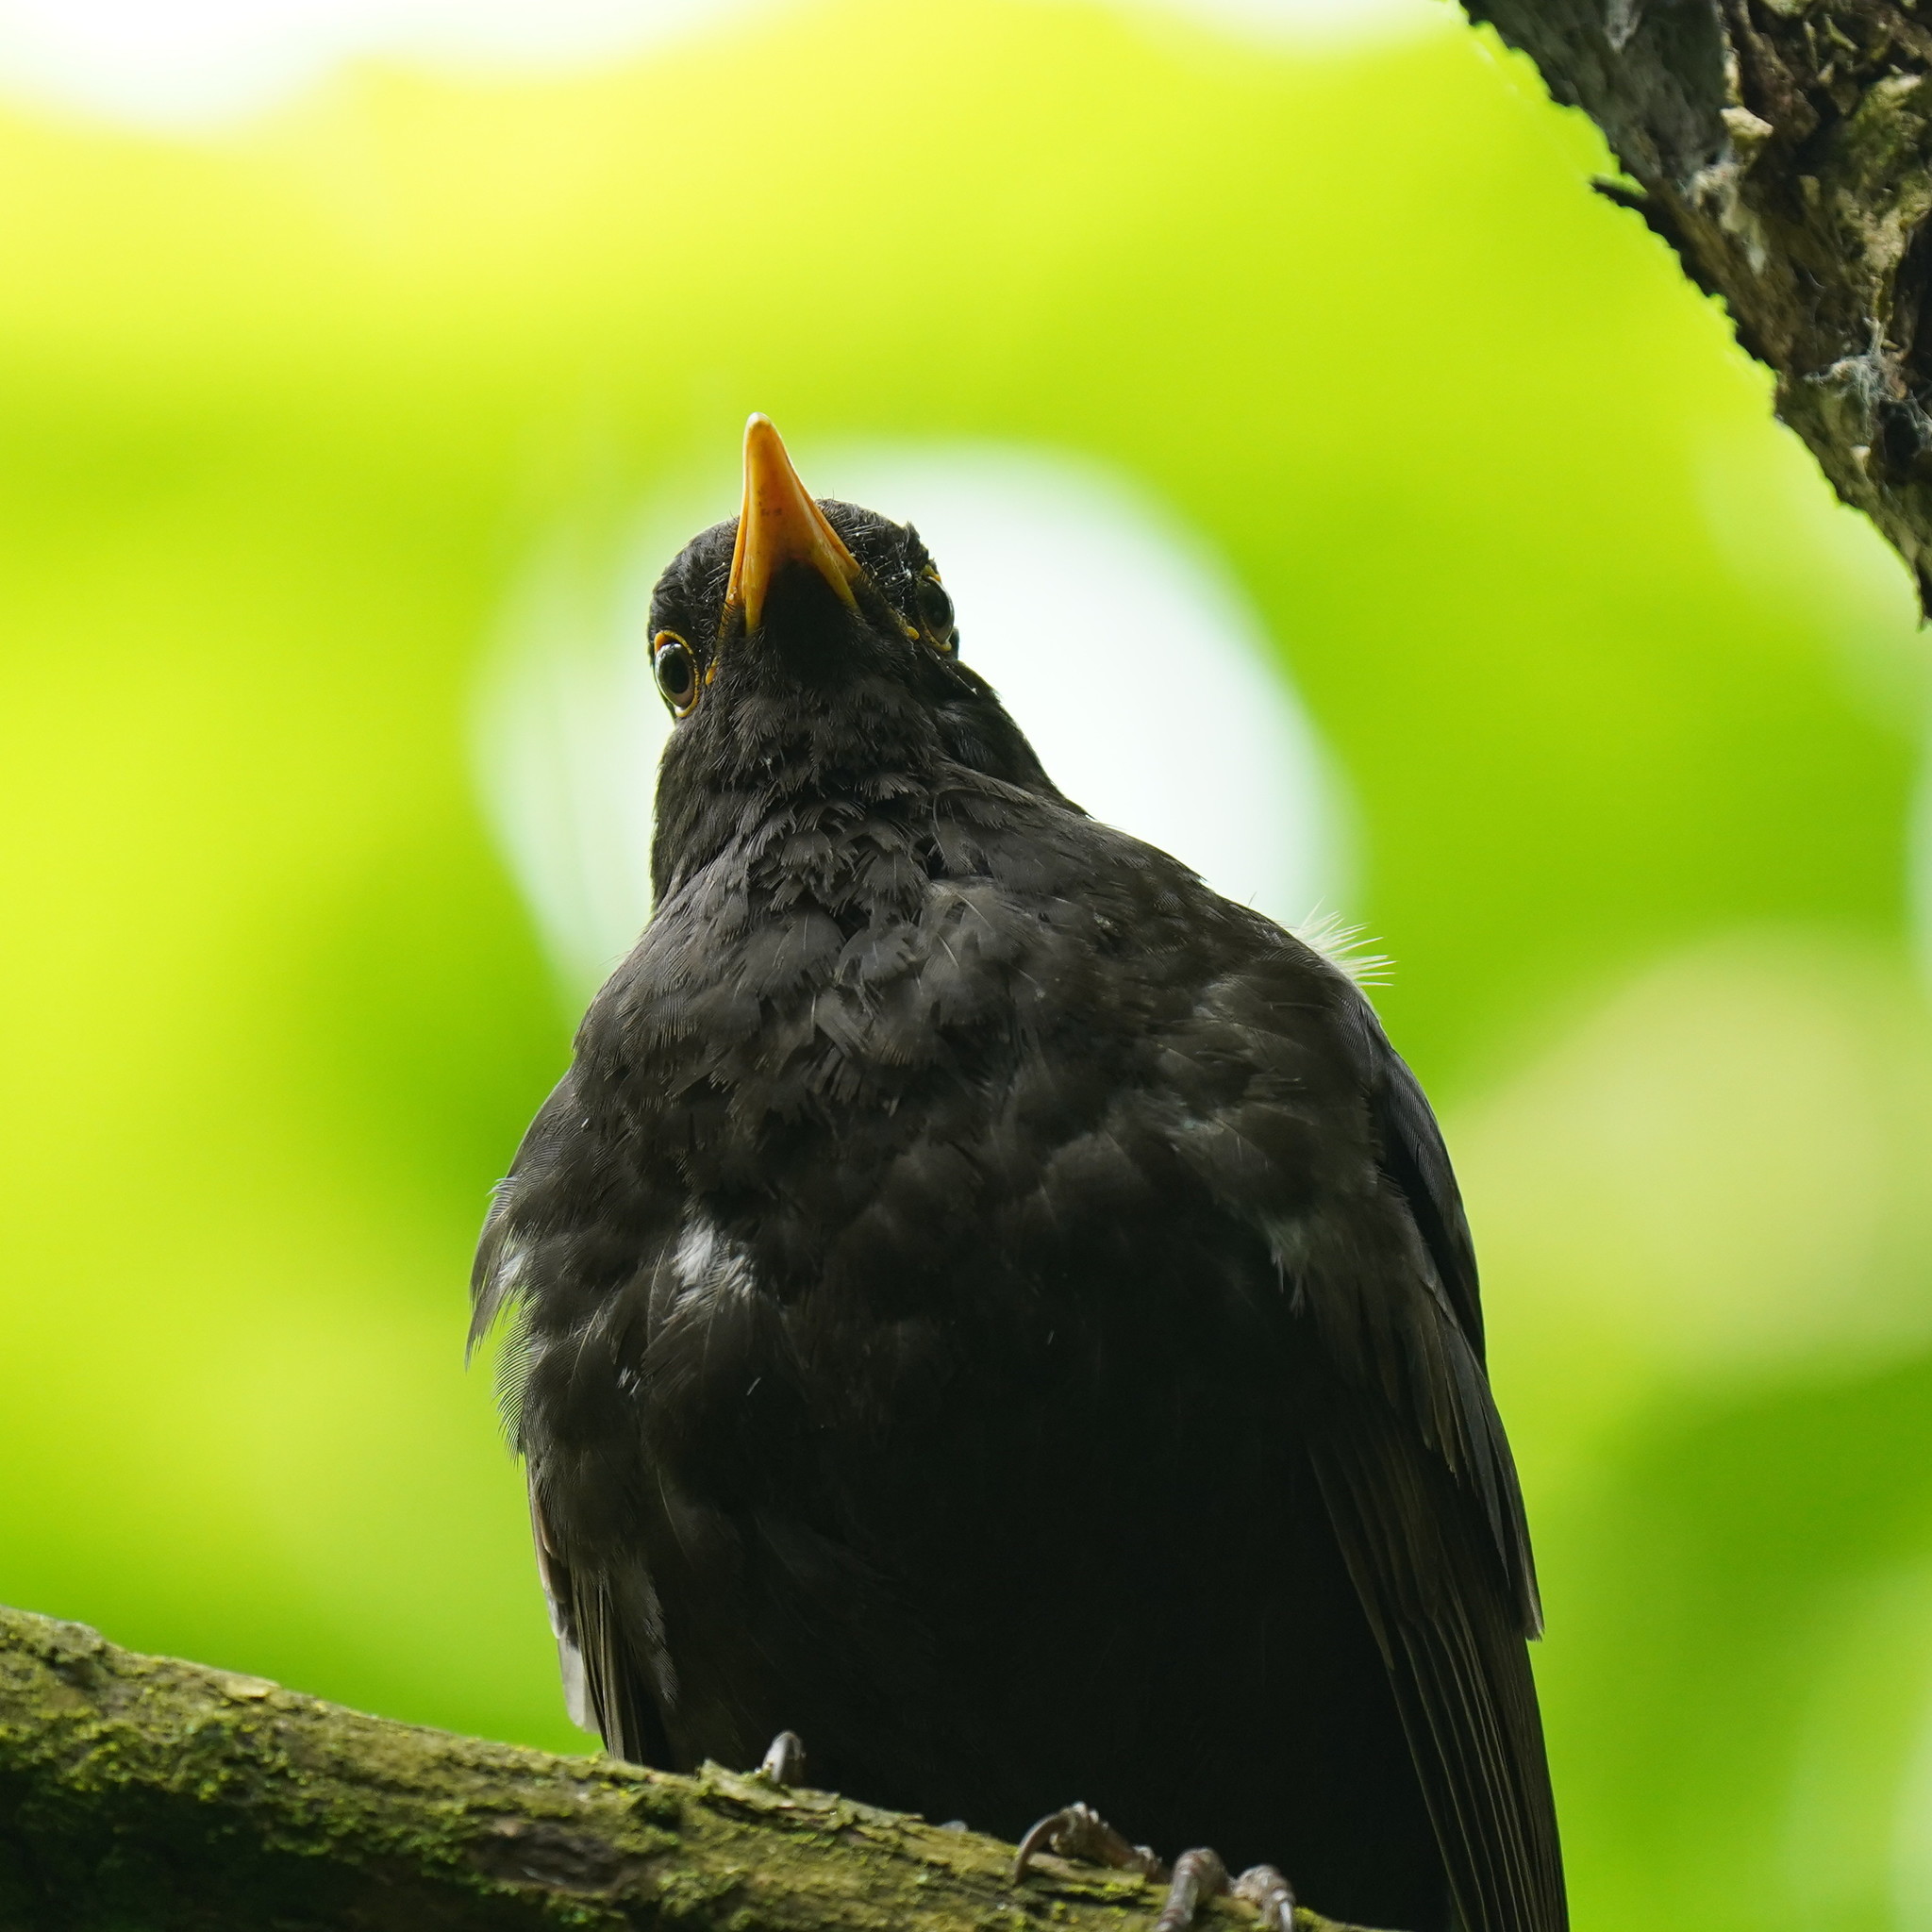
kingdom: Animalia
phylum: Chordata
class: Aves
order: Passeriformes
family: Turdidae
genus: Turdus
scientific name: Turdus merula
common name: Common blackbird
